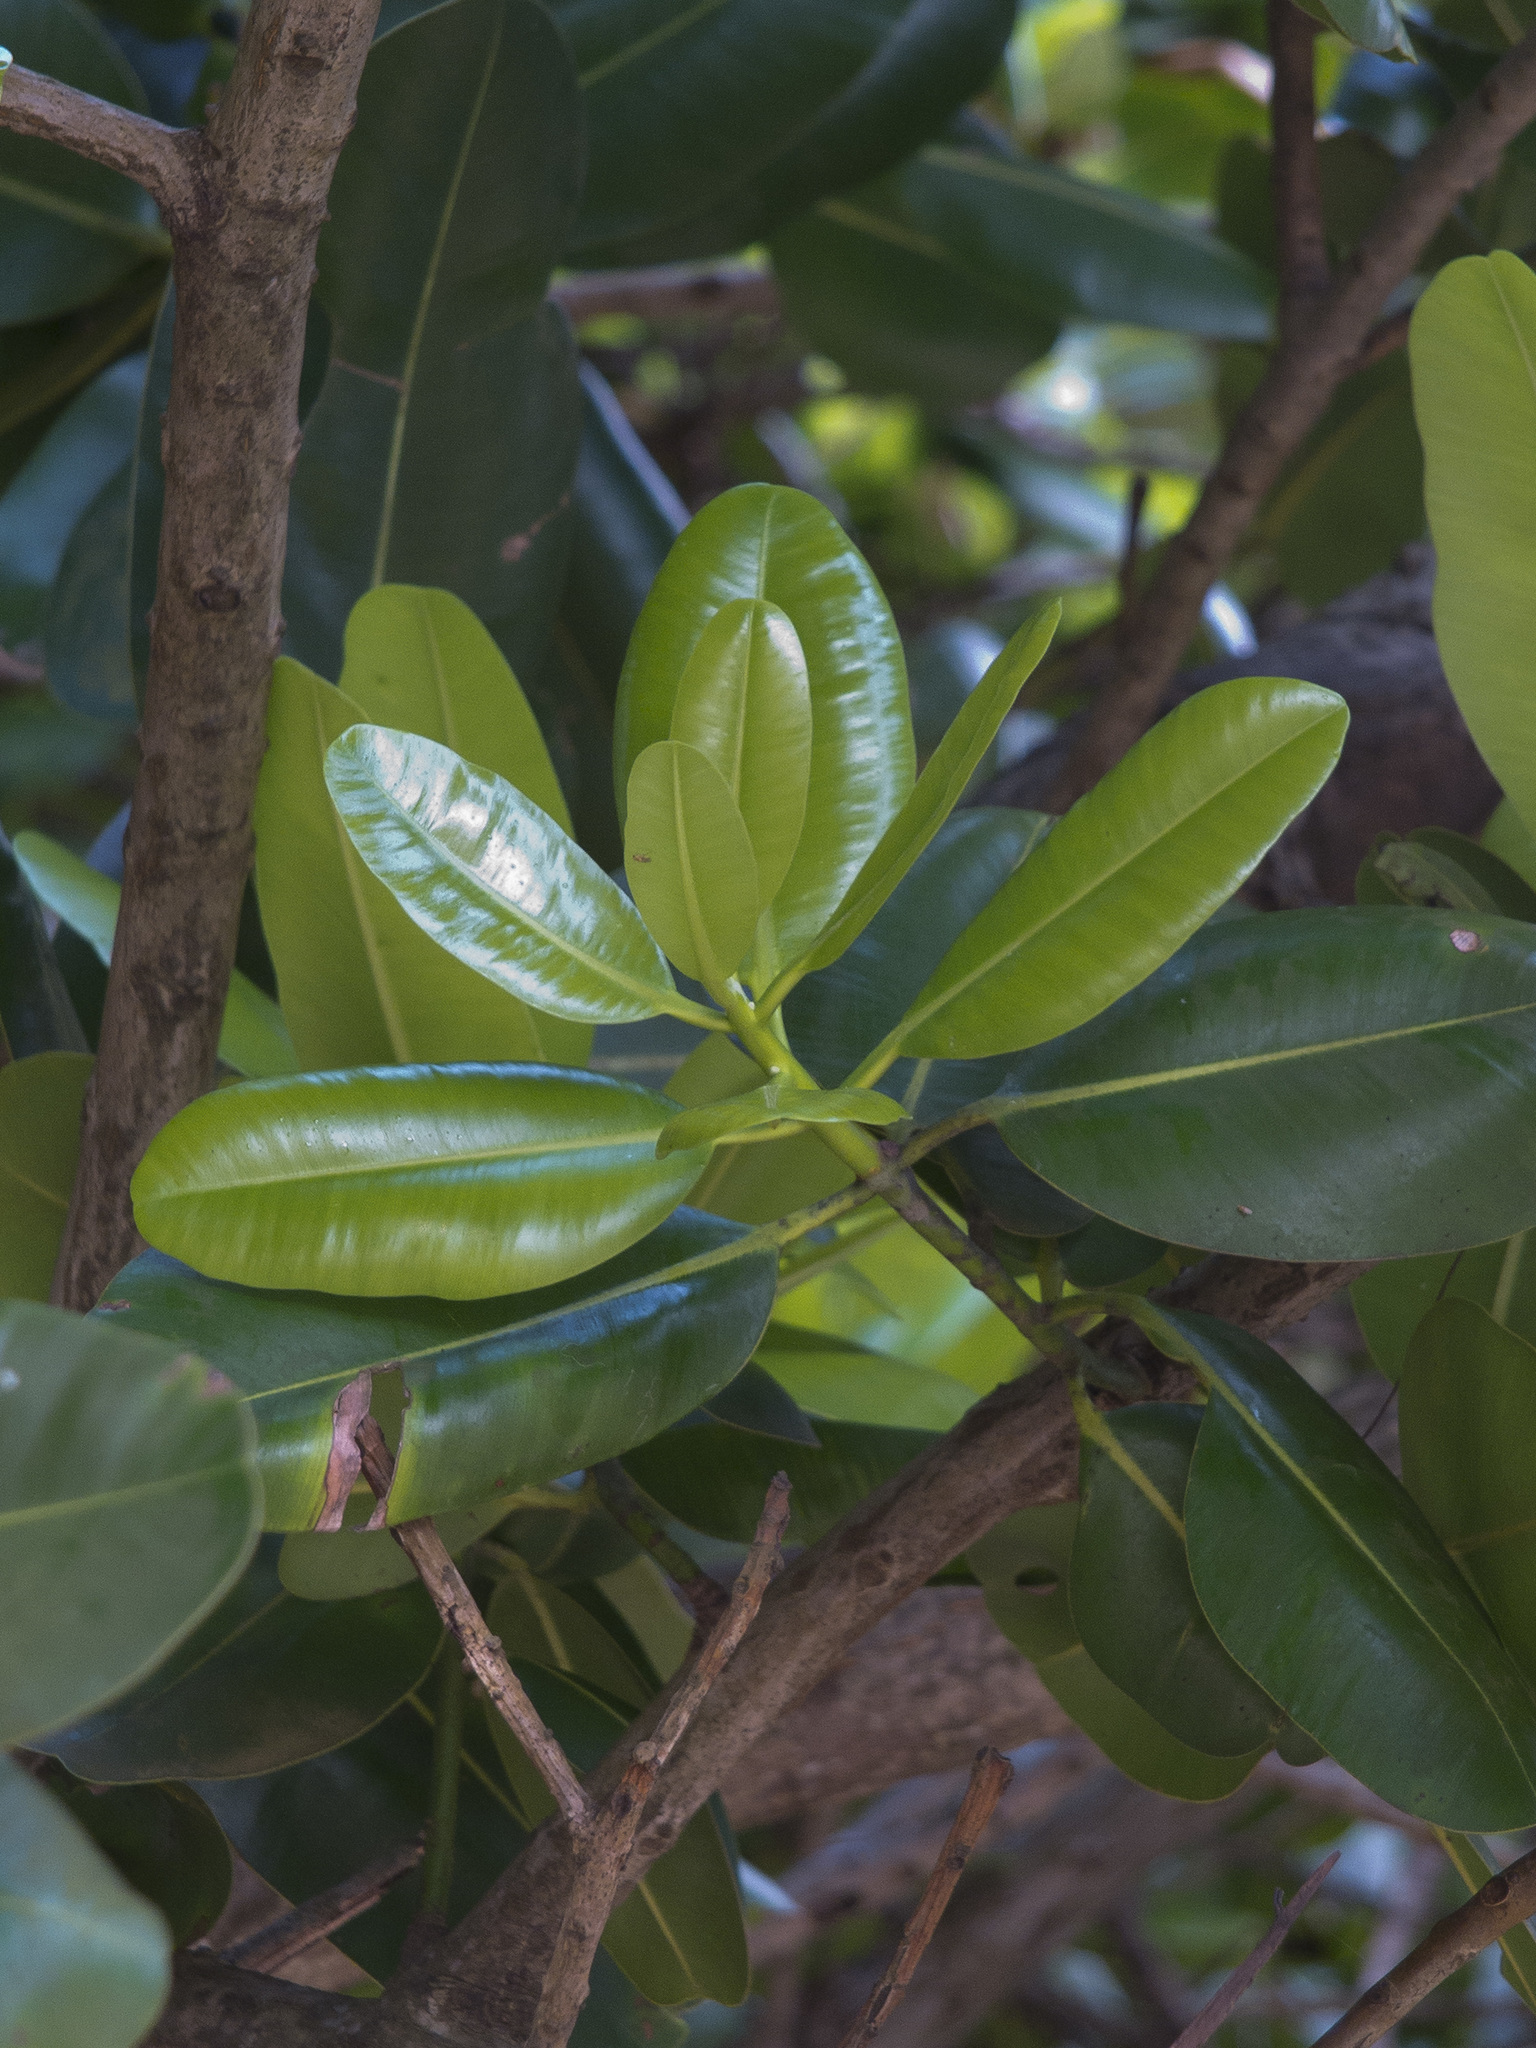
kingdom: Plantae
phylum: Tracheophyta
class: Magnoliopsida
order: Malpighiales
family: Calophyllaceae
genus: Calophyllum
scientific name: Calophyllum inophyllum
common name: Alexandrian laurel
